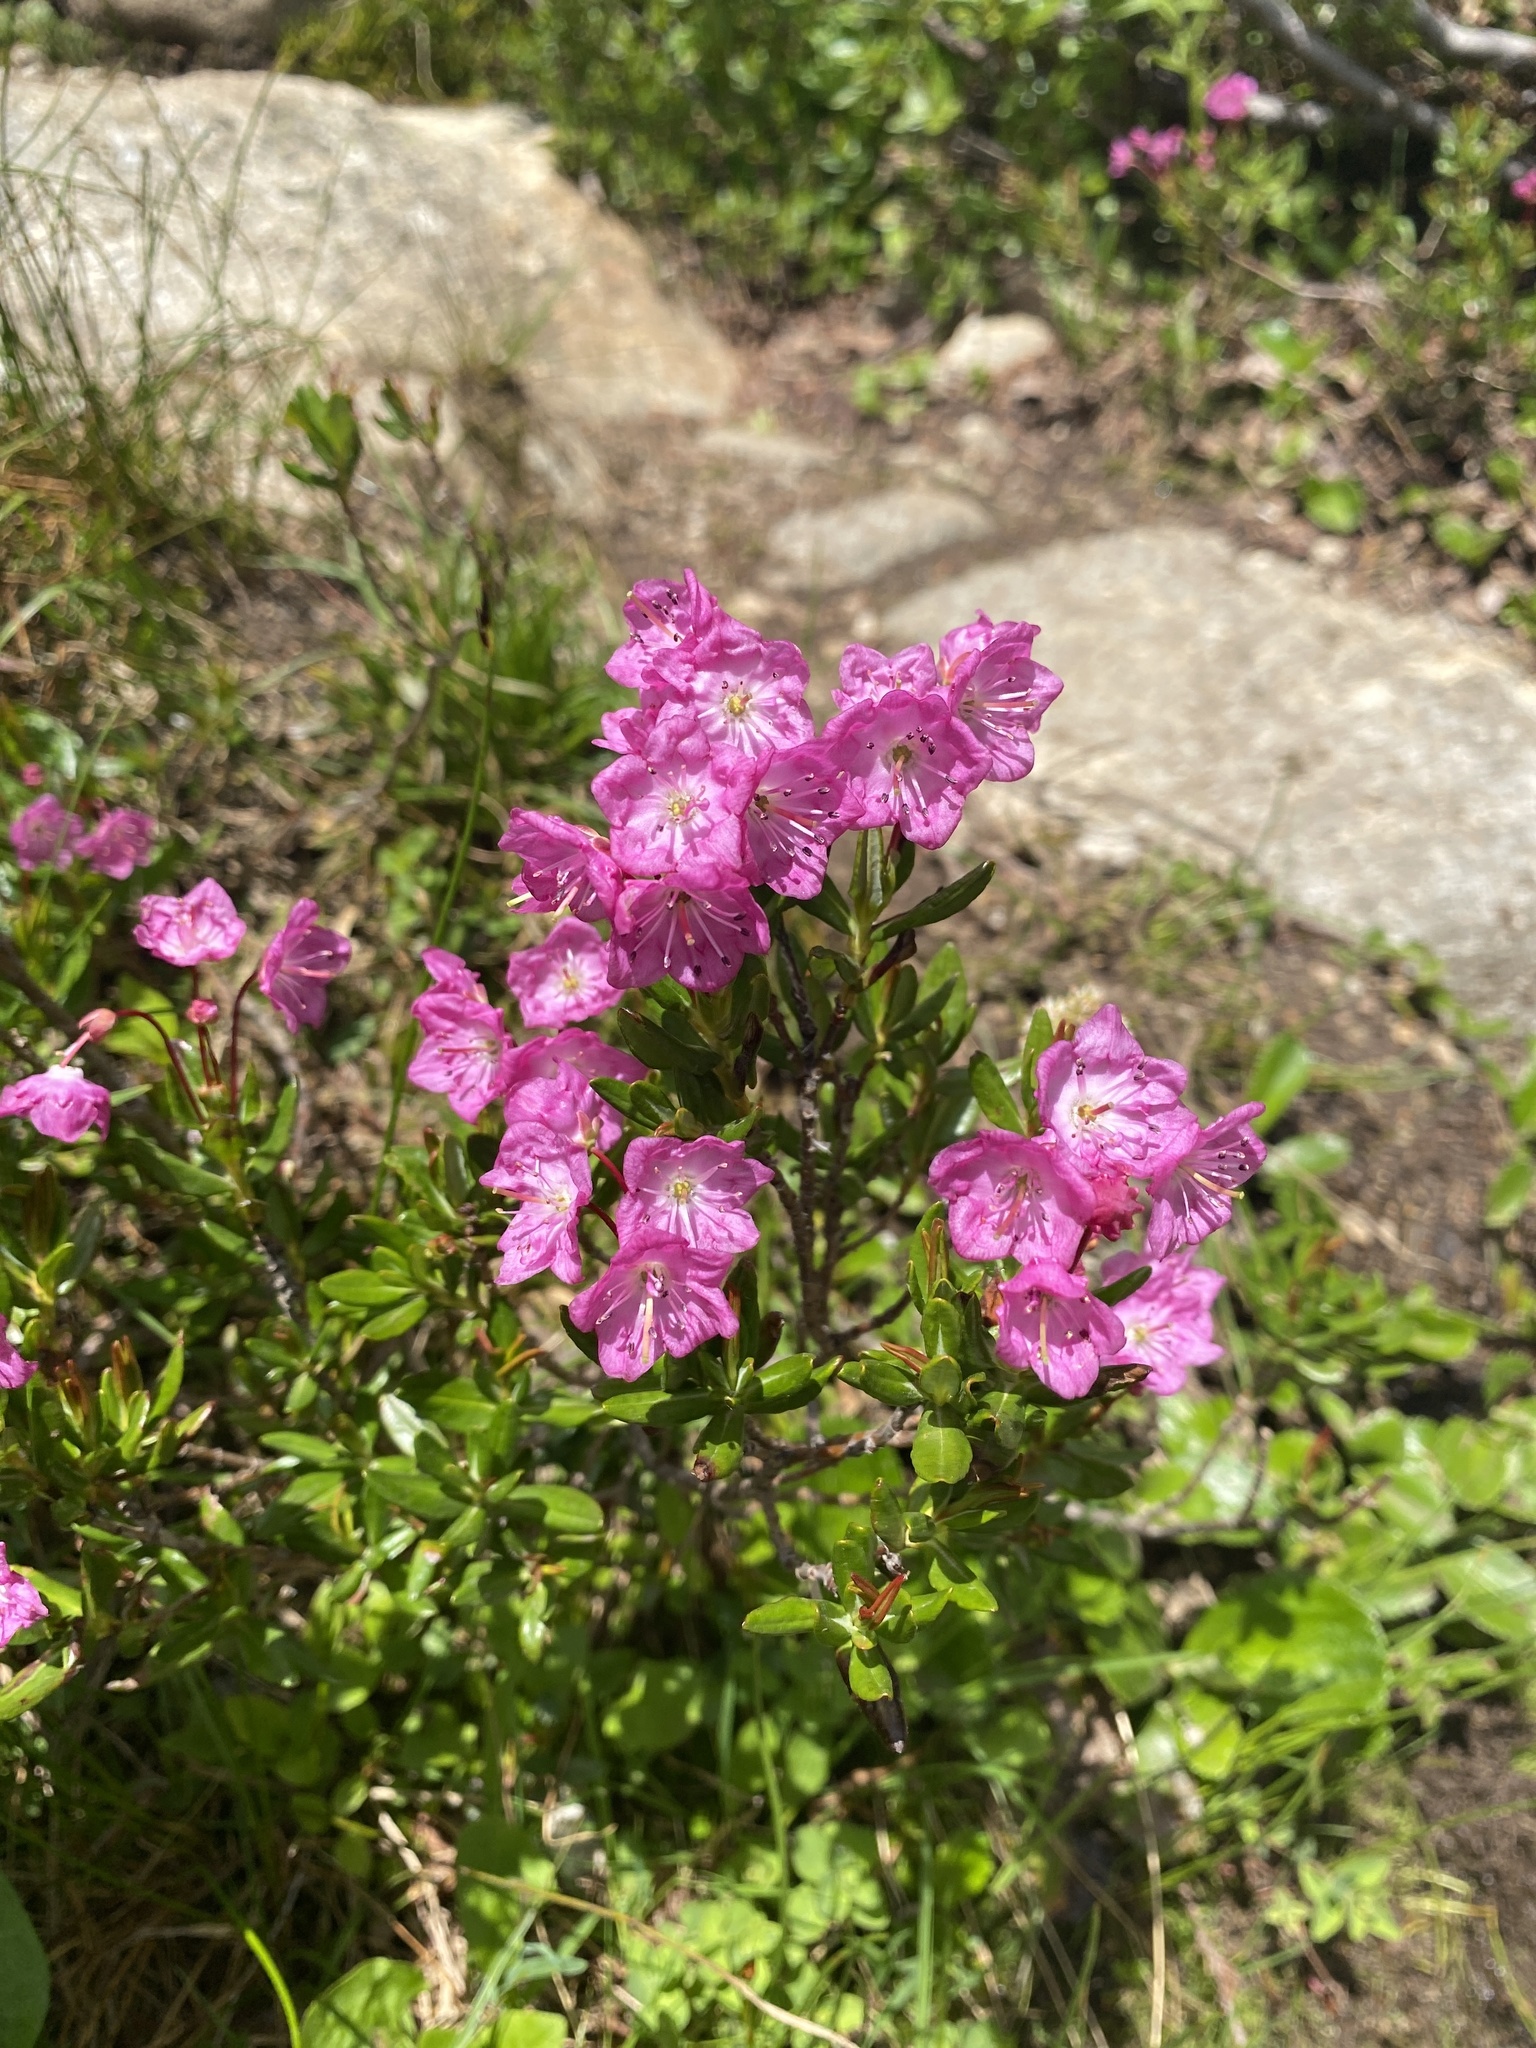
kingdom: Plantae
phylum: Tracheophyta
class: Magnoliopsida
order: Ericales
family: Ericaceae
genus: Kalmia
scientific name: Kalmia microphylla
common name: Alpine bog laurel
